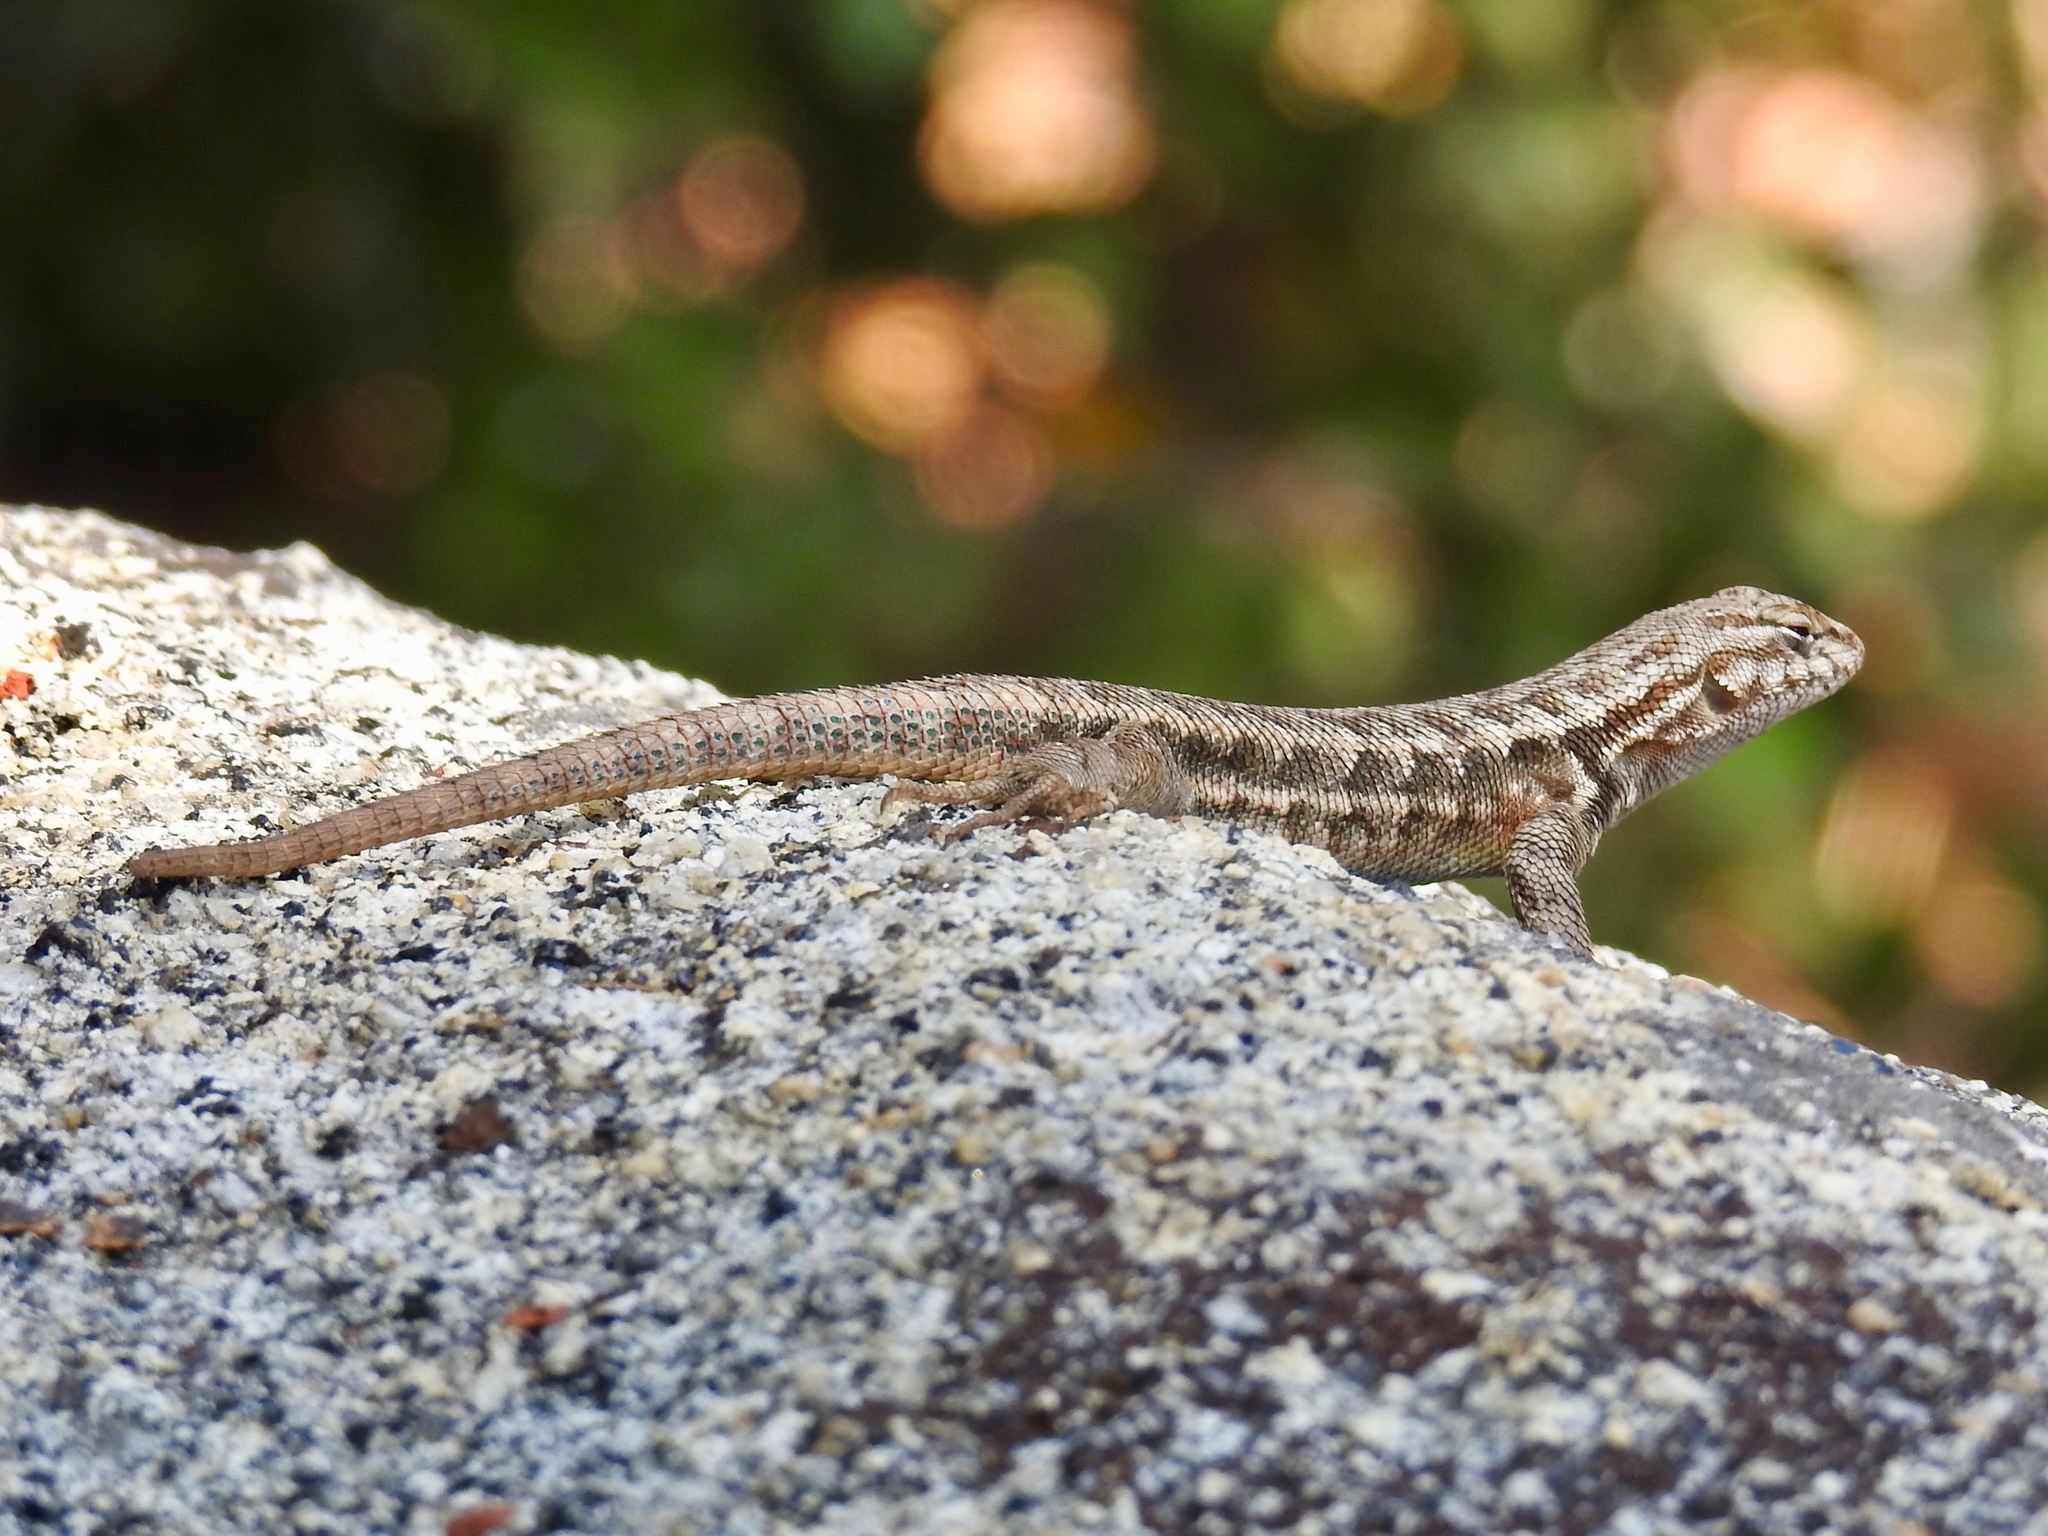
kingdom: Animalia
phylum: Chordata
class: Squamata
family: Phrynosomatidae
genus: Sceloporus
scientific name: Sceloporus graciosus
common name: Sagebrush lizard
